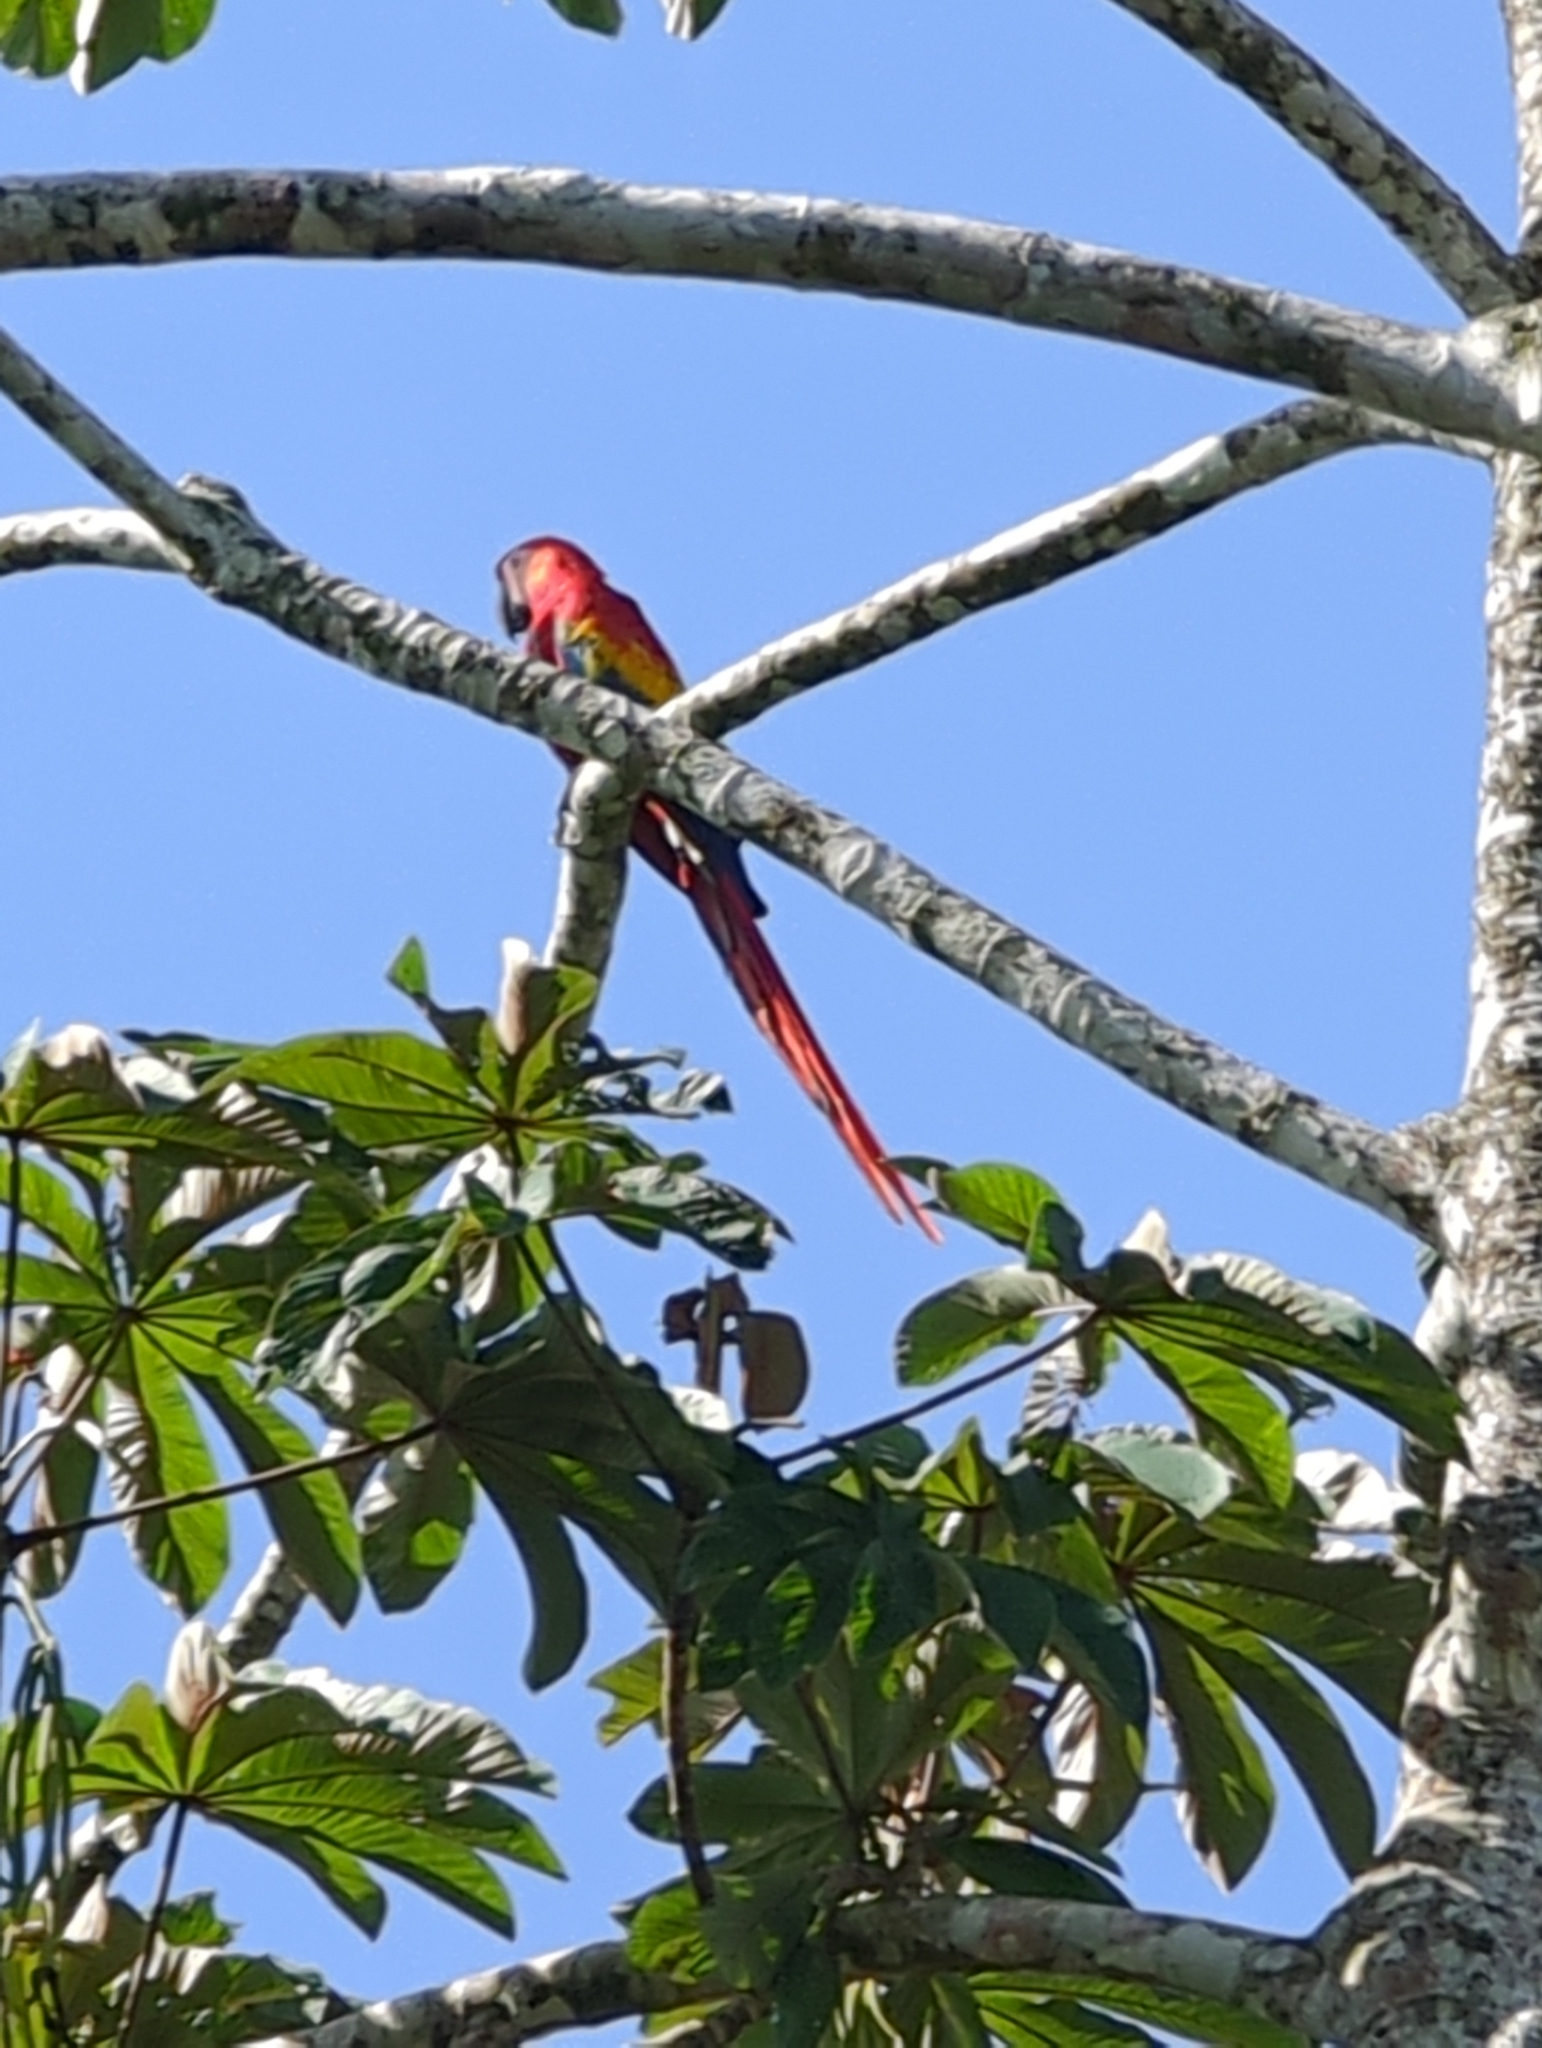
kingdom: Animalia
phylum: Chordata
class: Aves
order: Psittaciformes
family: Psittacidae
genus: Ara
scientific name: Ara macao
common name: Scarlet macaw
